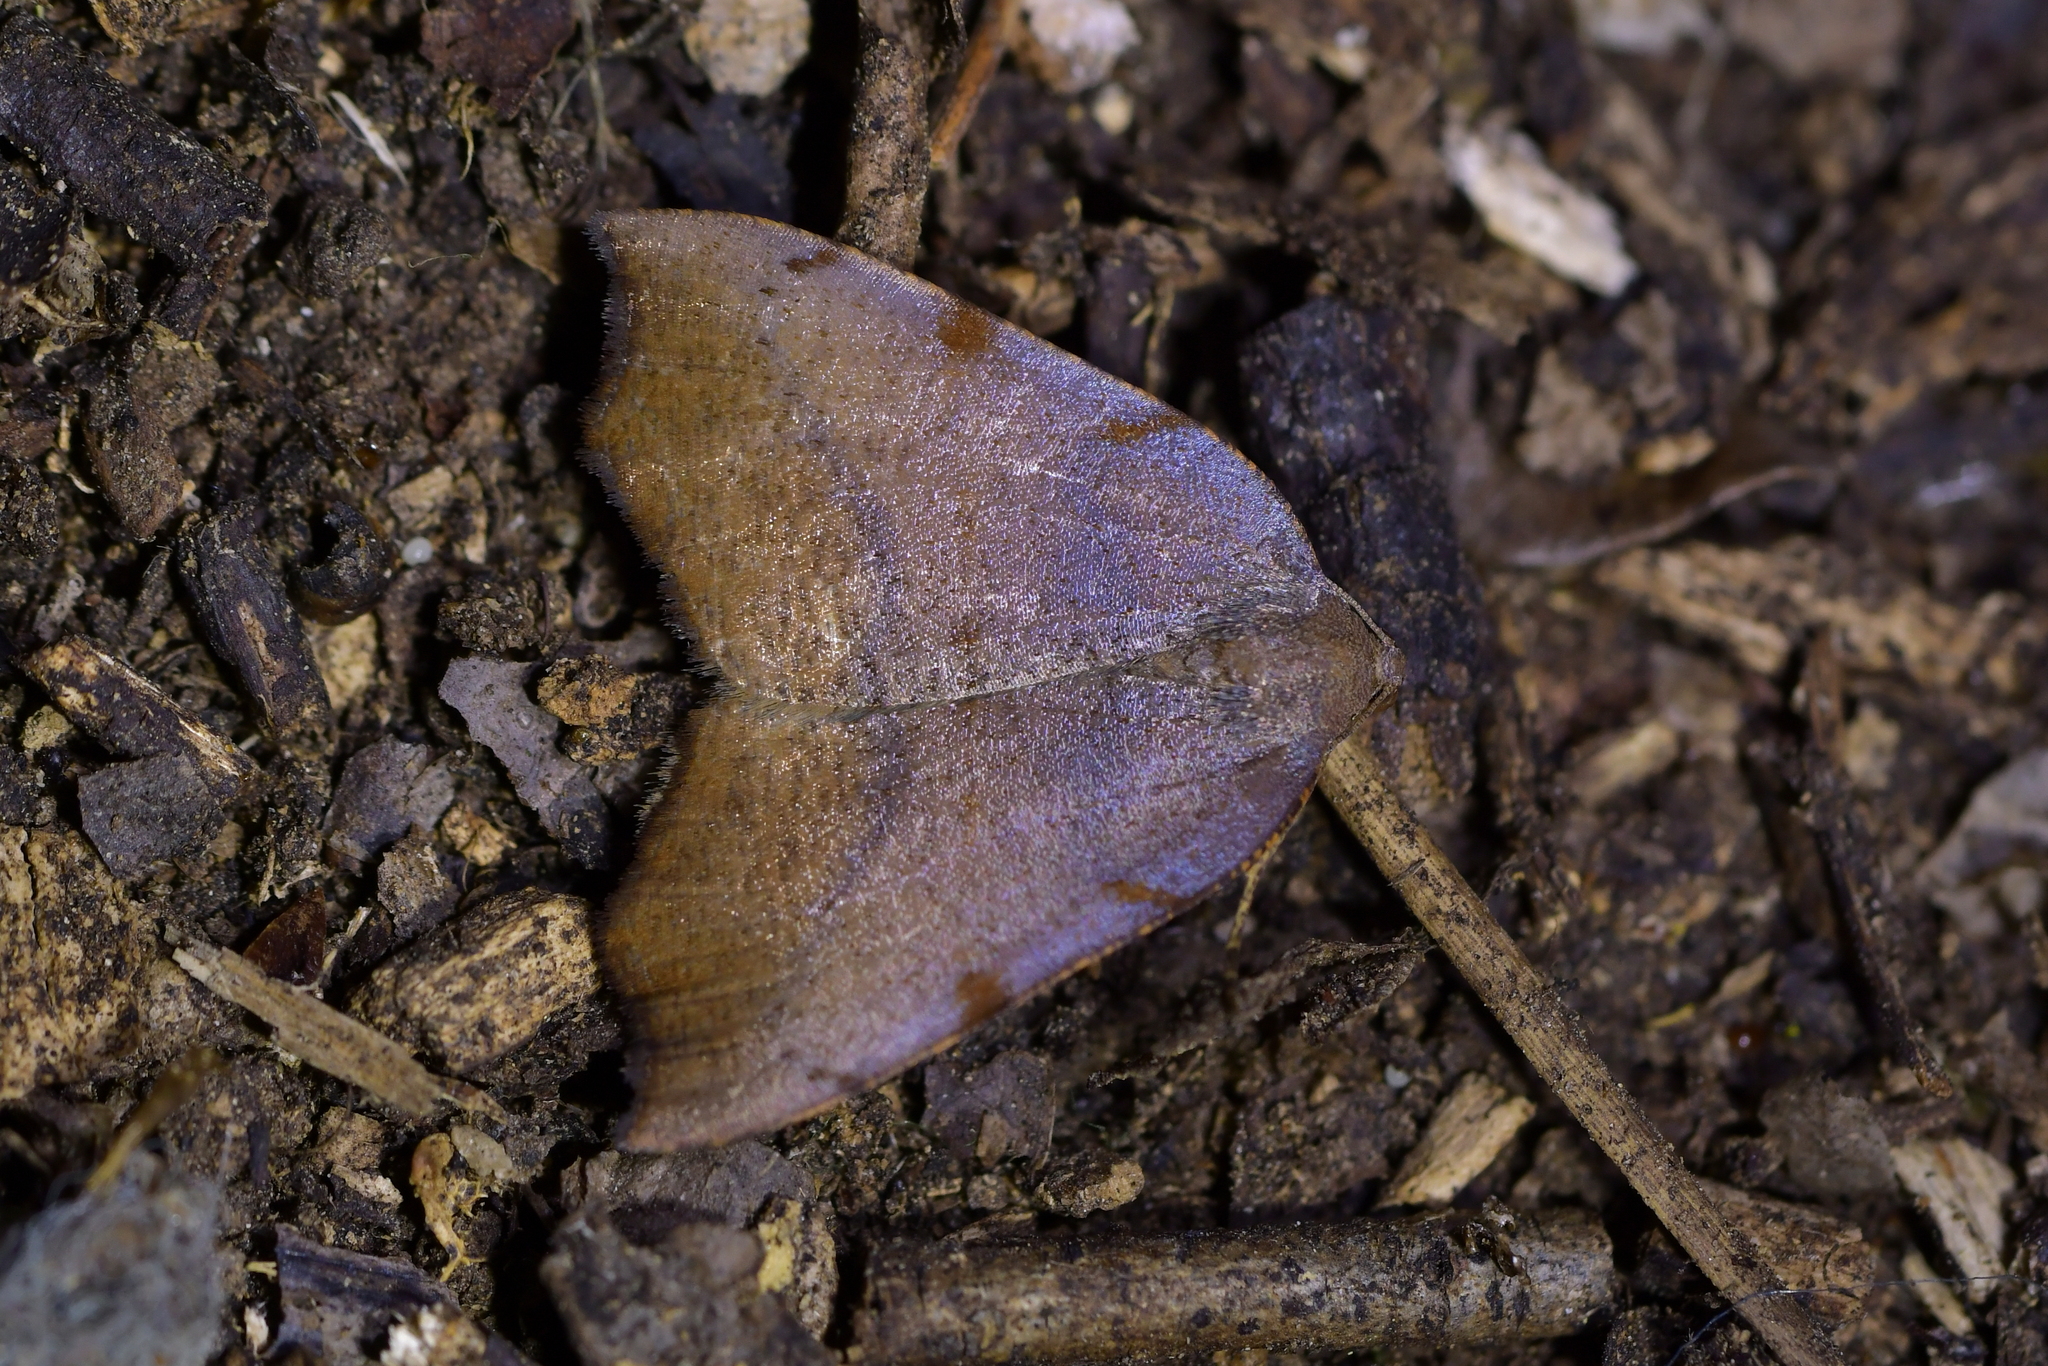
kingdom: Animalia
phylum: Arthropoda
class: Insecta
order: Lepidoptera
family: Geometridae
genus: Sestra
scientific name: Sestra flexata
